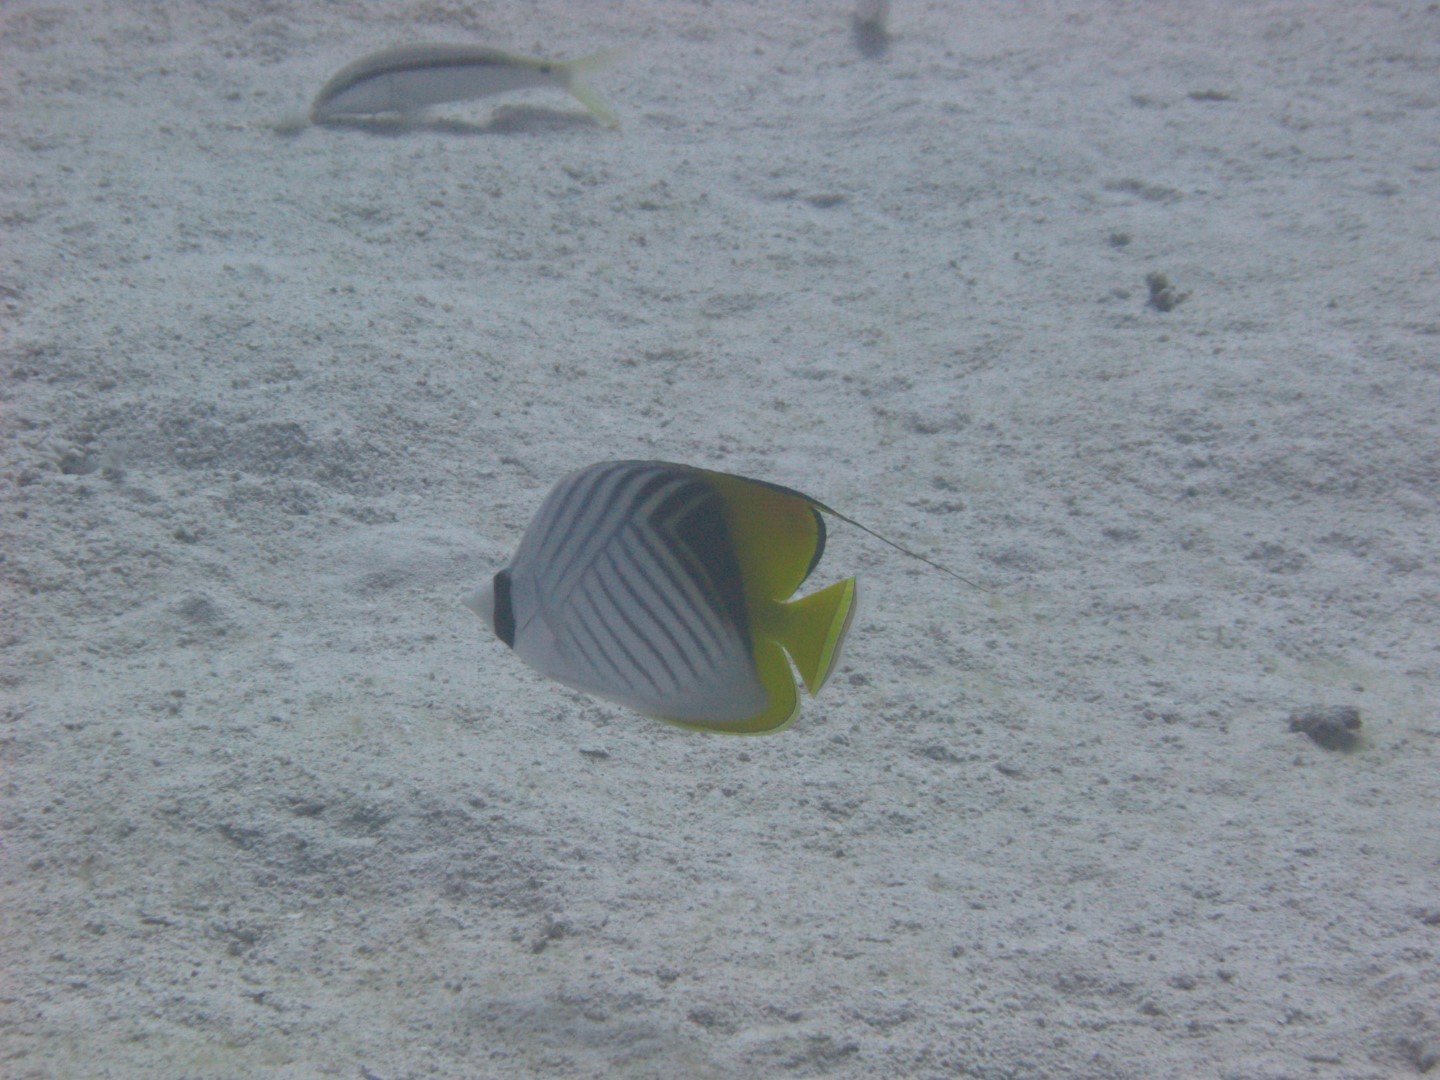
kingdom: Animalia
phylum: Chordata
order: Perciformes
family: Chaetodontidae
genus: Chaetodon
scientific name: Chaetodon auriga
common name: Threadfin butterflyfish
